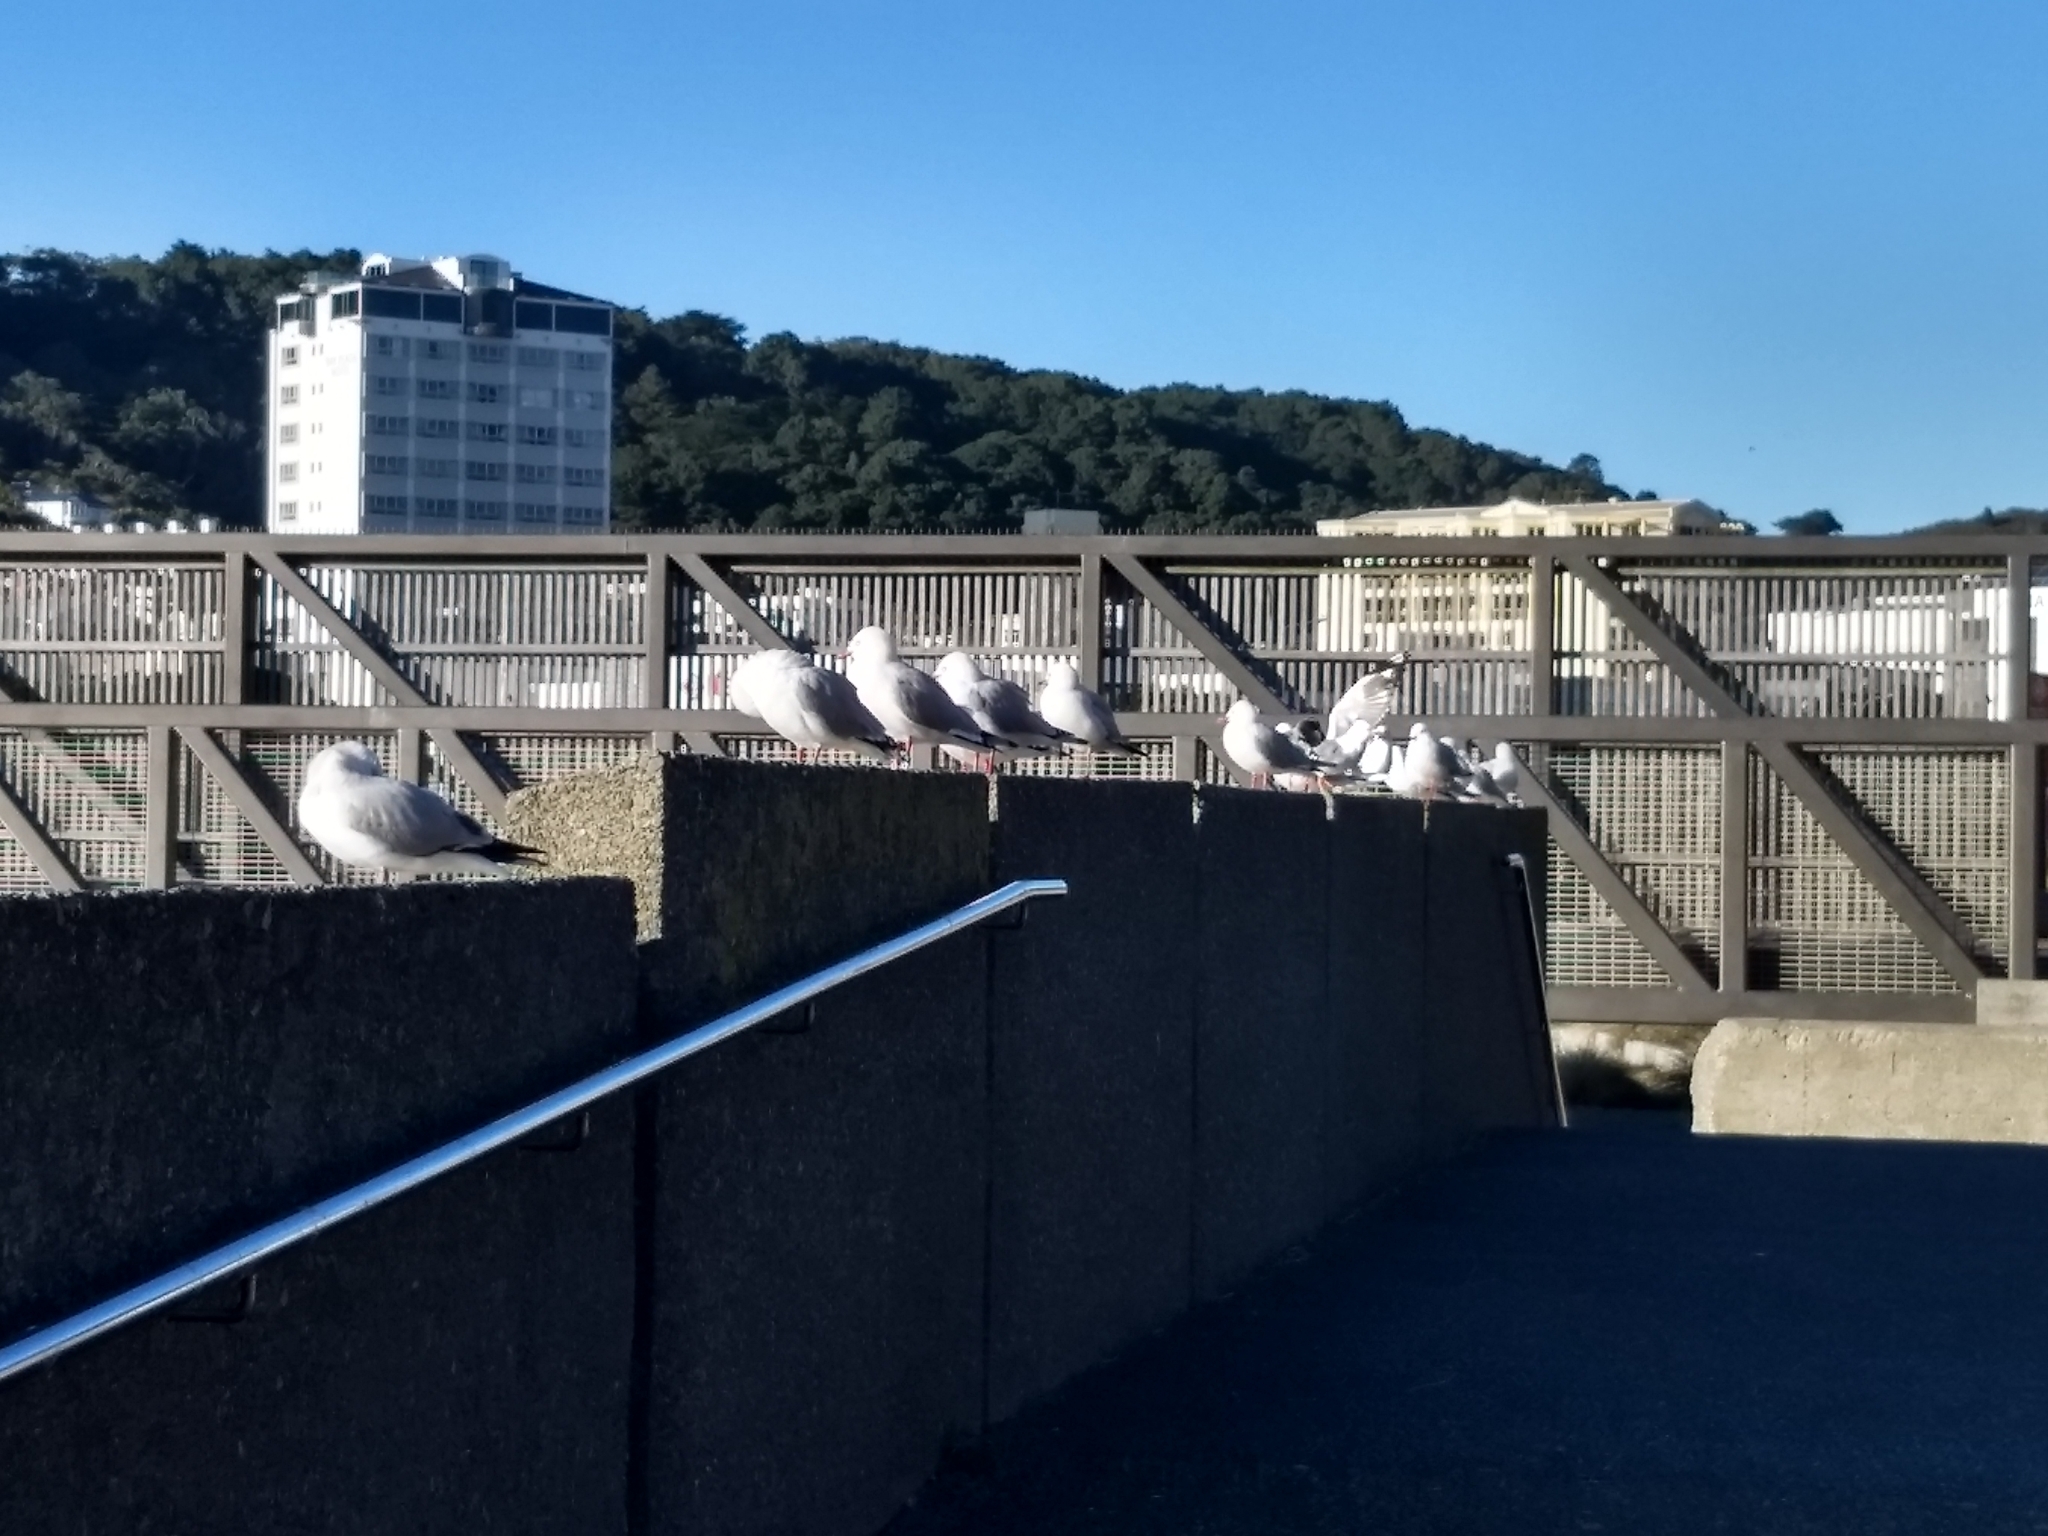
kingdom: Animalia
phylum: Chordata
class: Aves
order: Charadriiformes
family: Laridae
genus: Chroicocephalus
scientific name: Chroicocephalus novaehollandiae
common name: Silver gull
